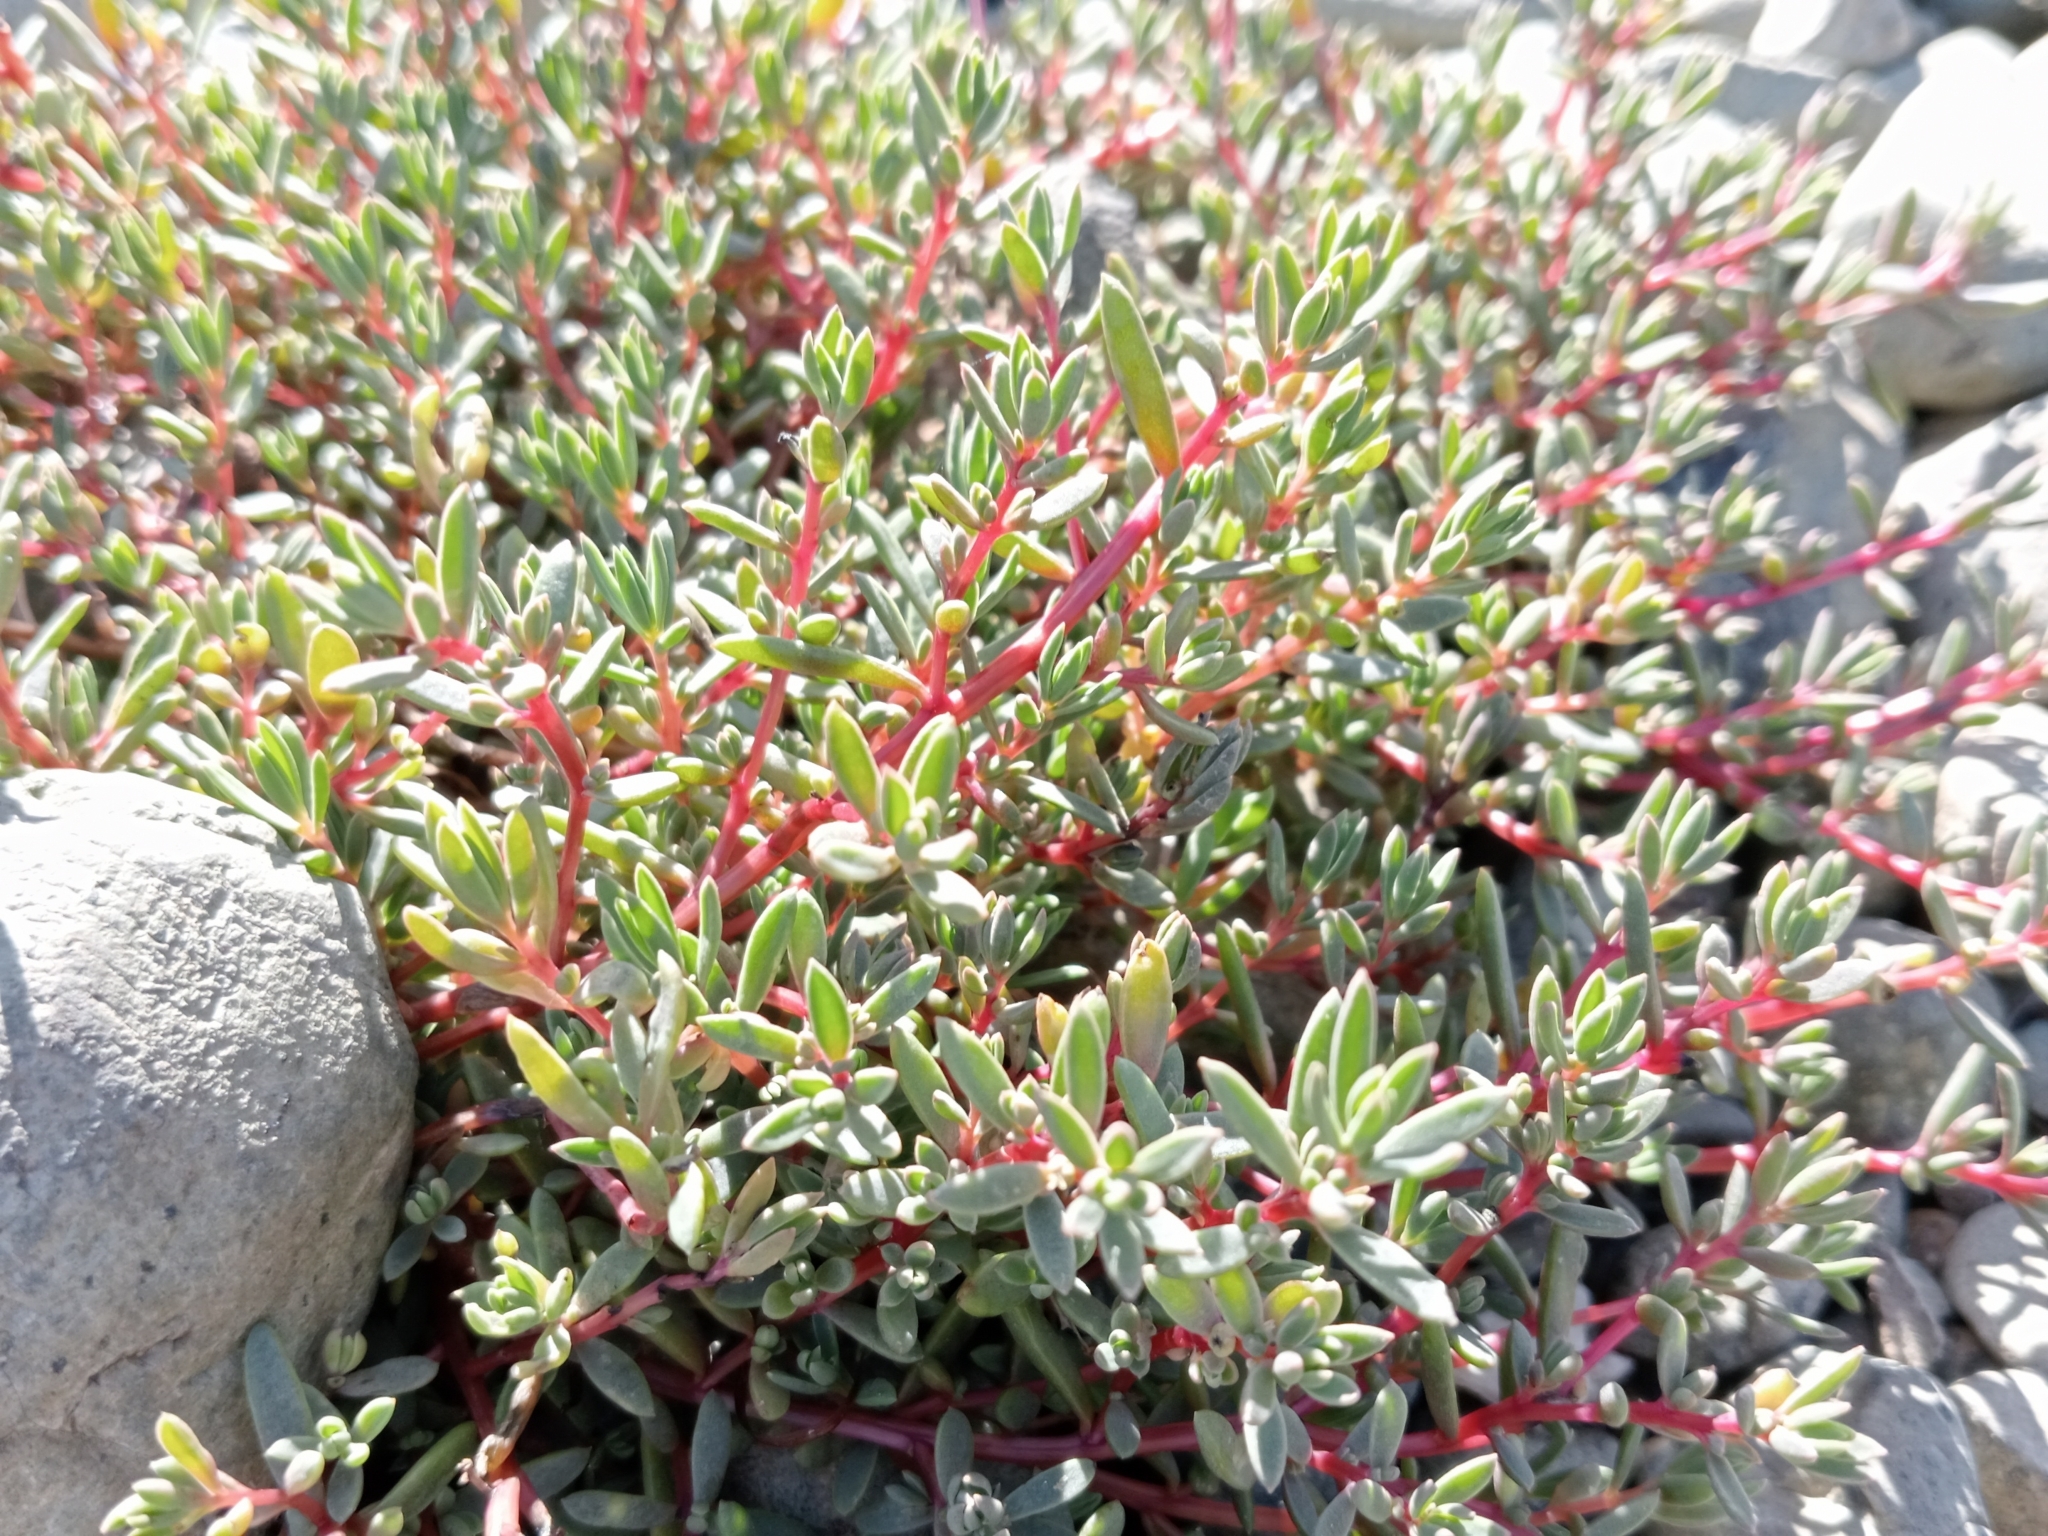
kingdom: Plantae
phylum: Tracheophyta
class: Magnoliopsida
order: Caryophyllales
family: Amaranthaceae
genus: Suaeda
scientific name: Suaeda novae-zelandiae
